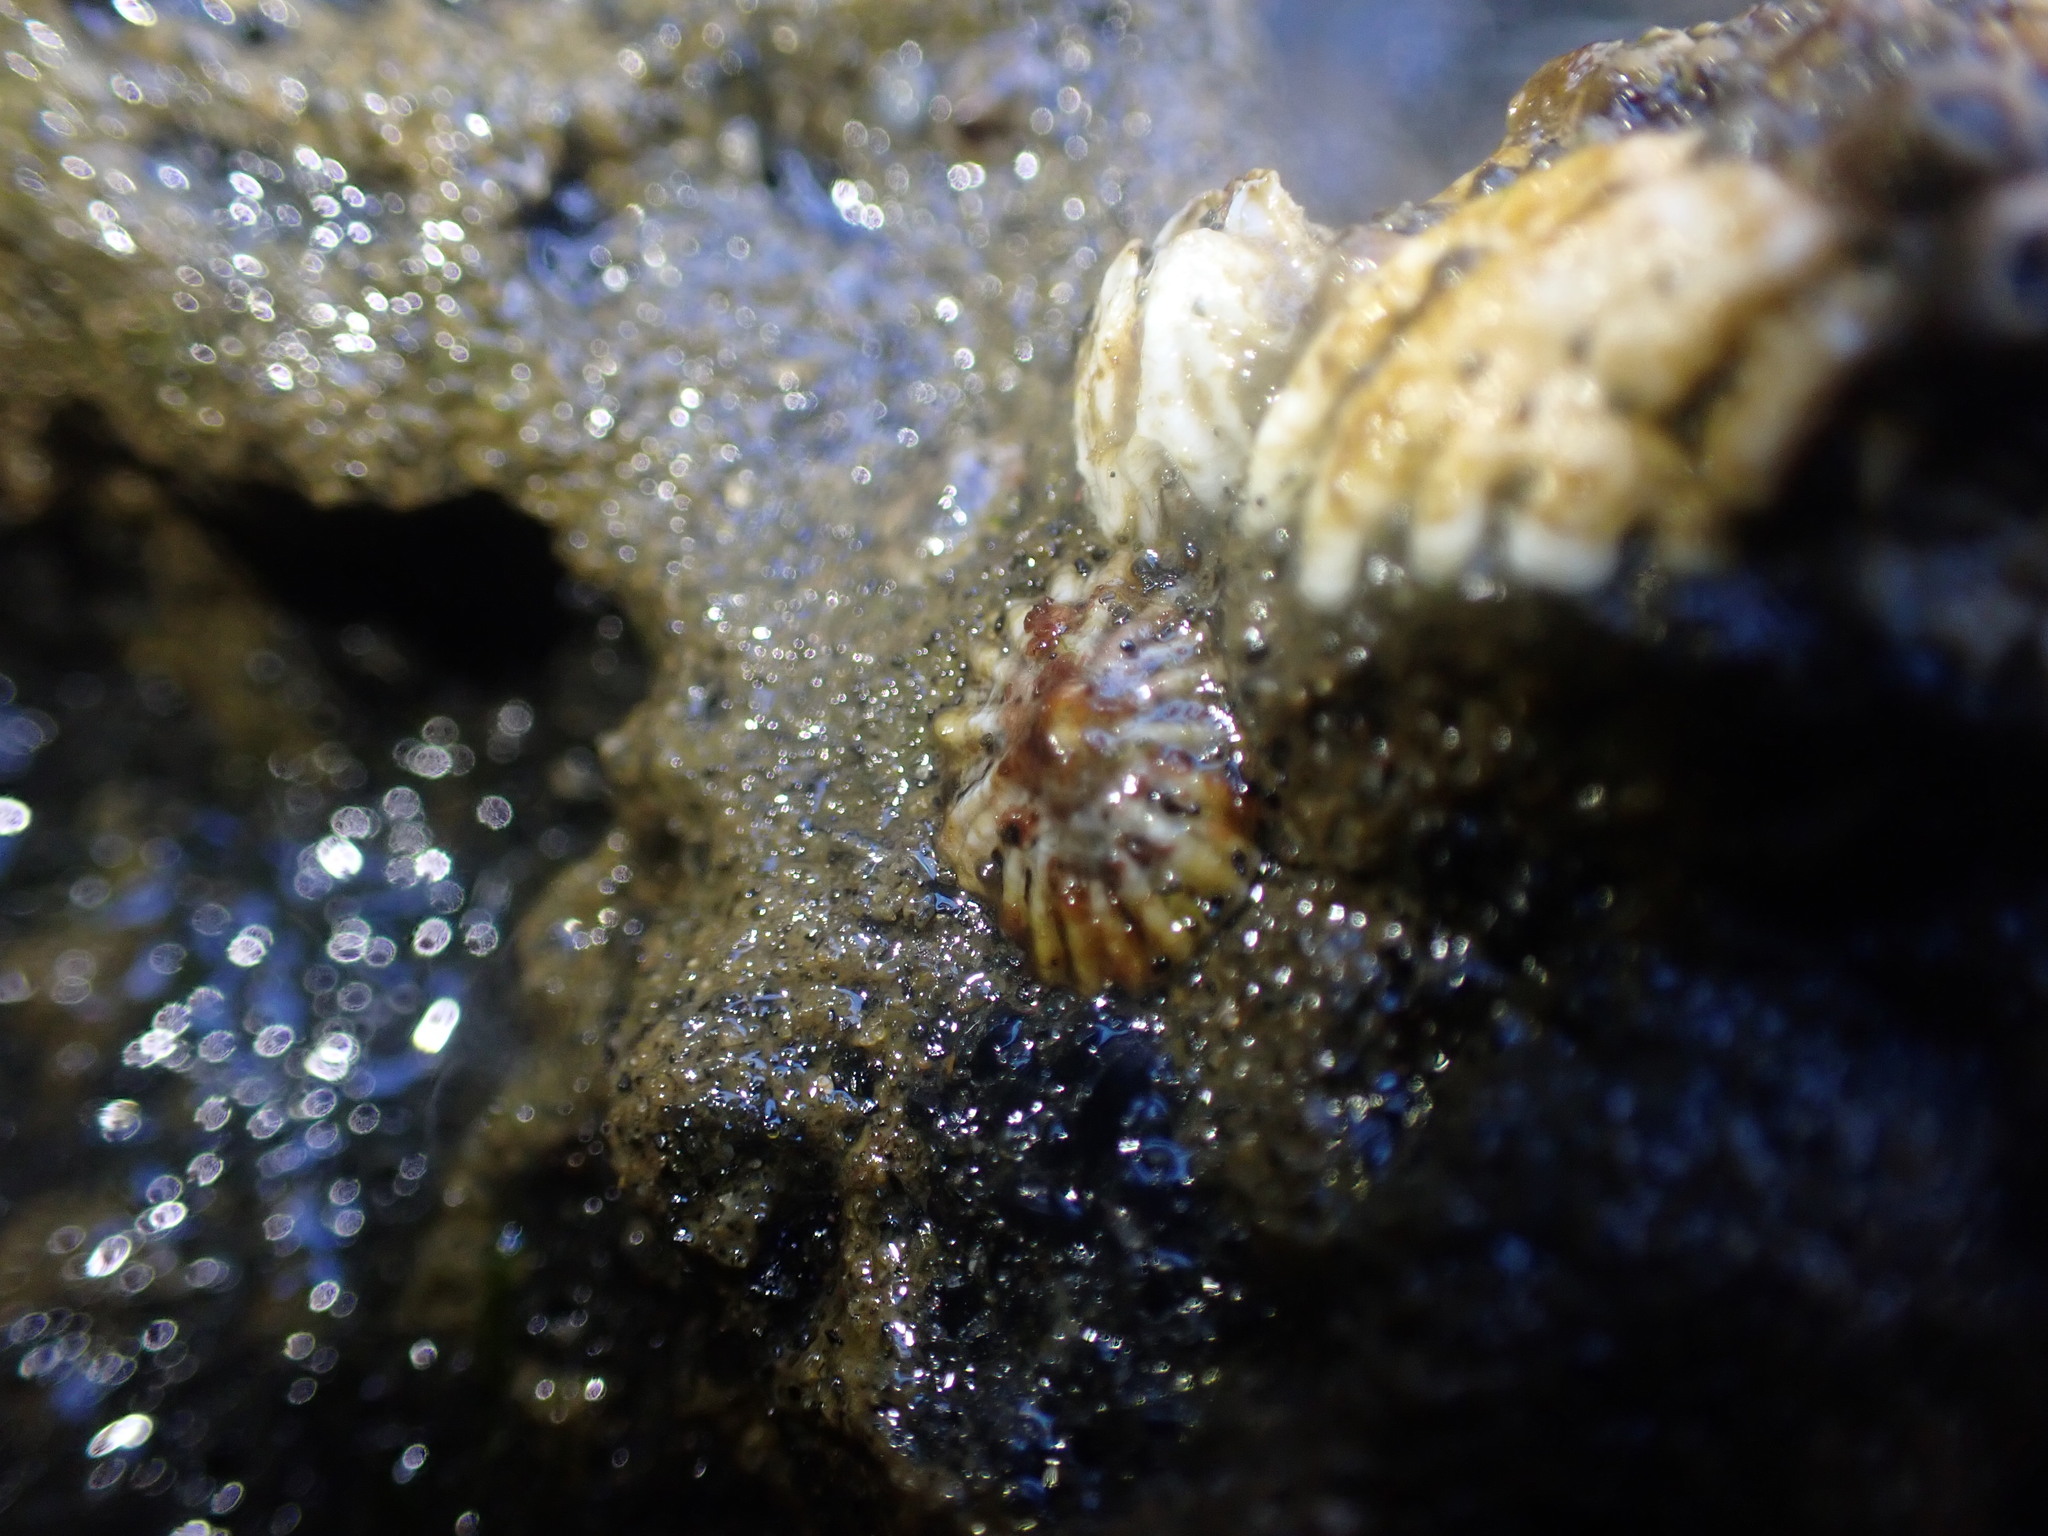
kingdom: Animalia
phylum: Mollusca
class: Gastropoda
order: Siphonariida
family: Siphonariidae
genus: Siphonaria
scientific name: Siphonaria australis
